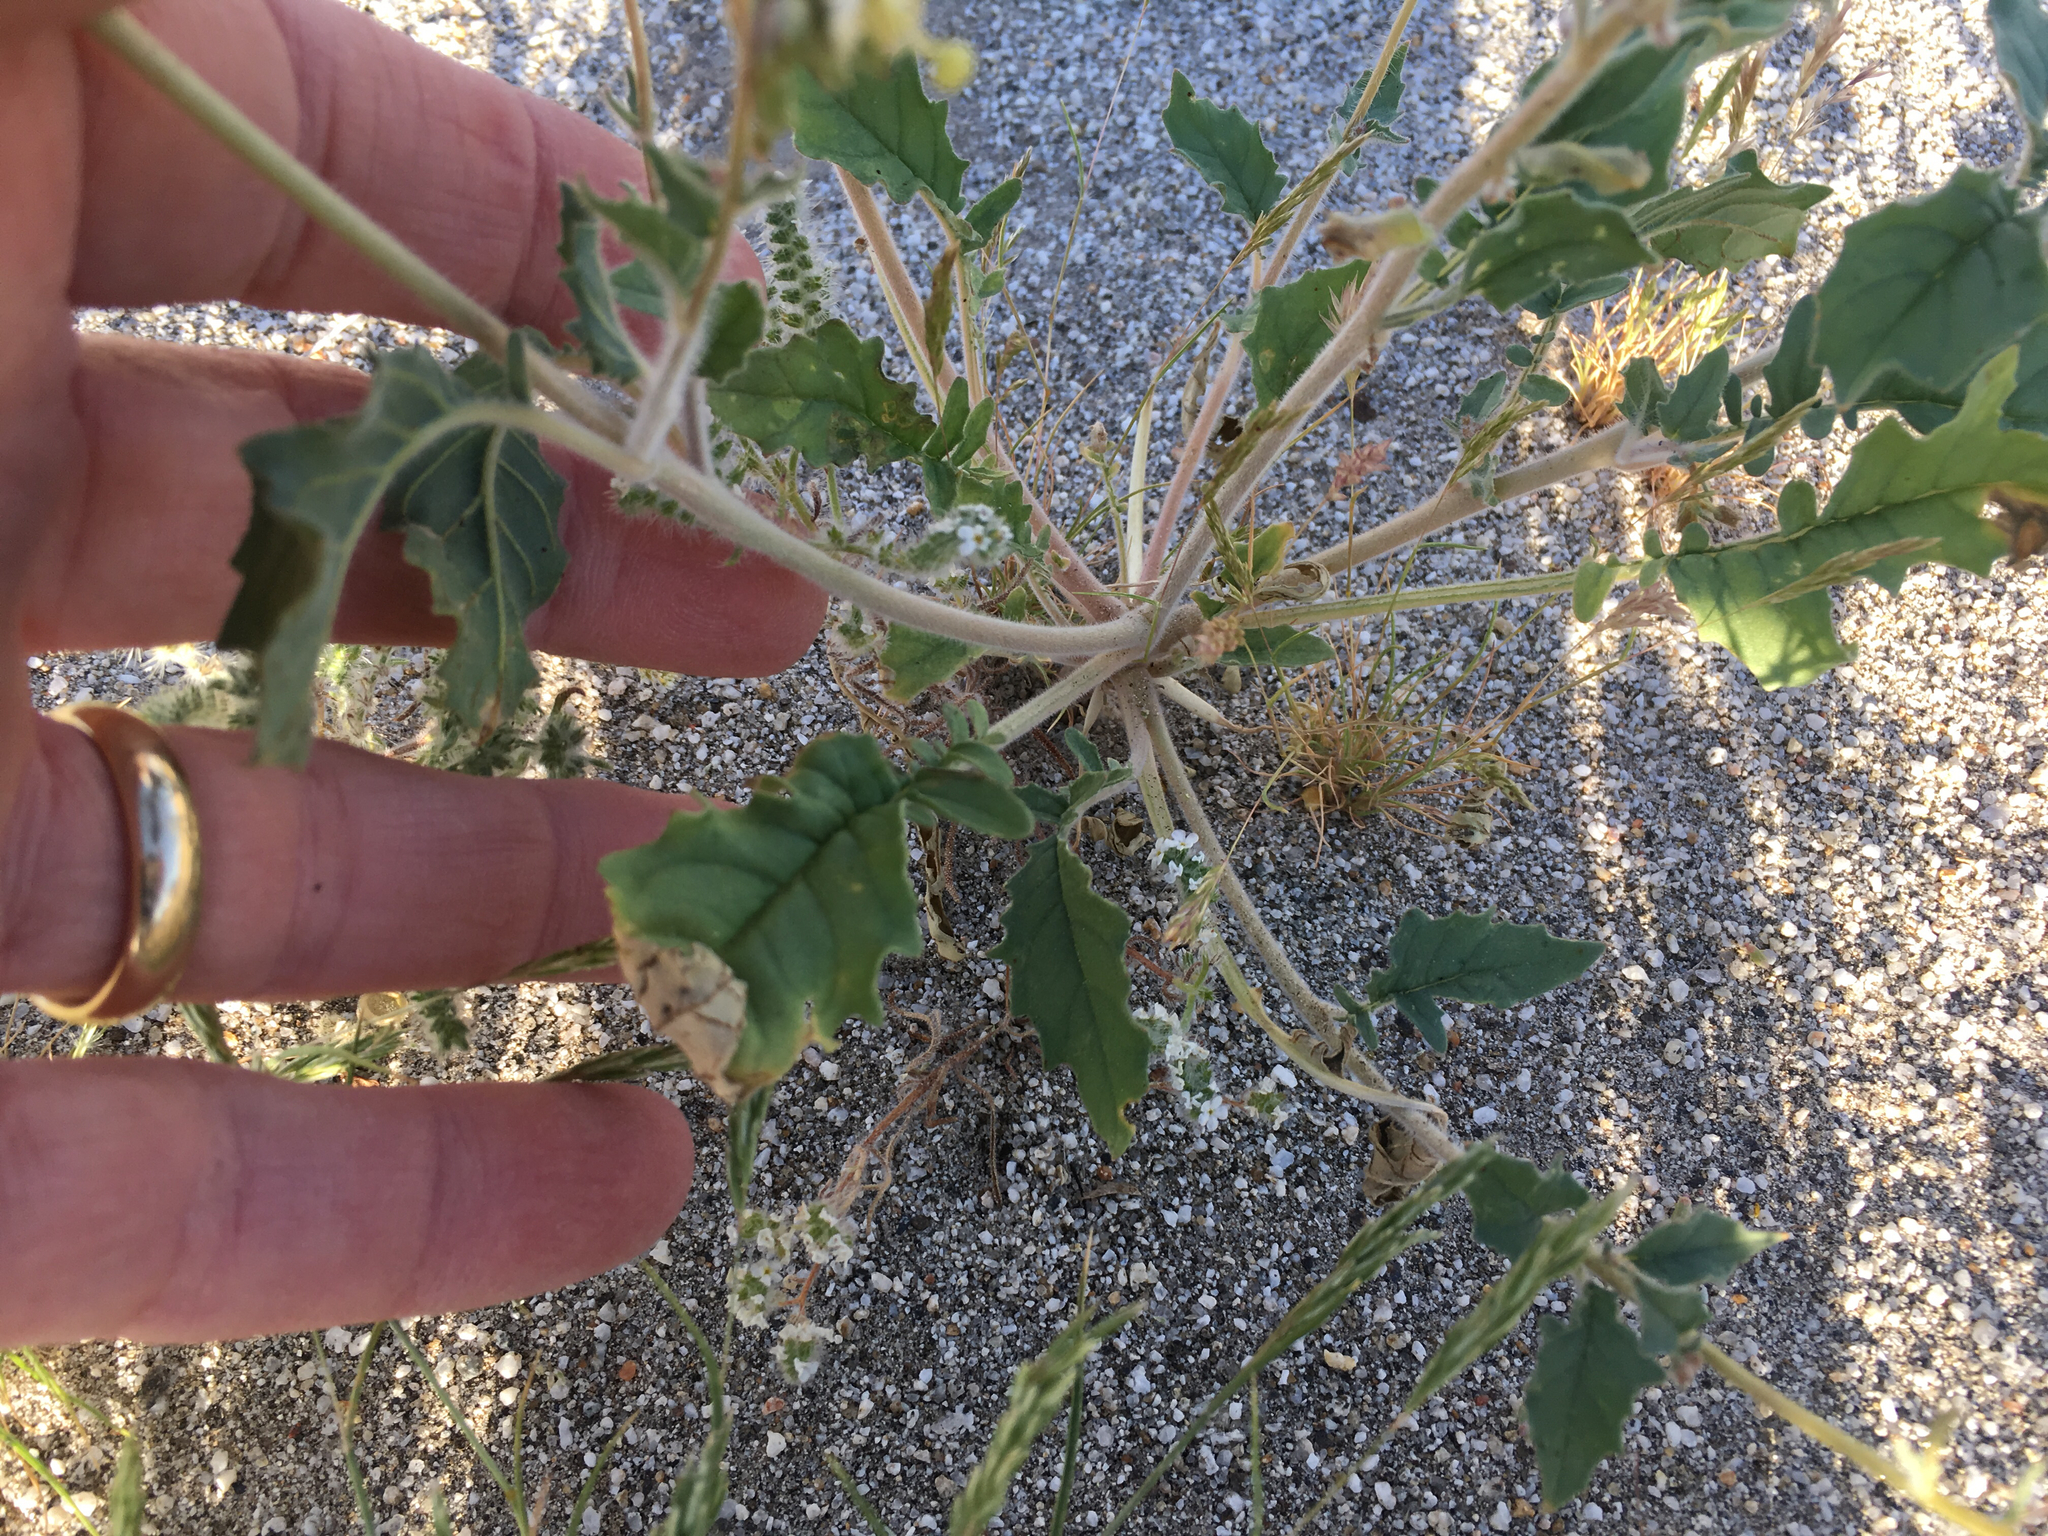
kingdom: Plantae
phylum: Tracheophyta
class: Magnoliopsida
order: Myrtales
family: Onagraceae
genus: Chylismia
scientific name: Chylismia claviformis
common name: Browneyes
